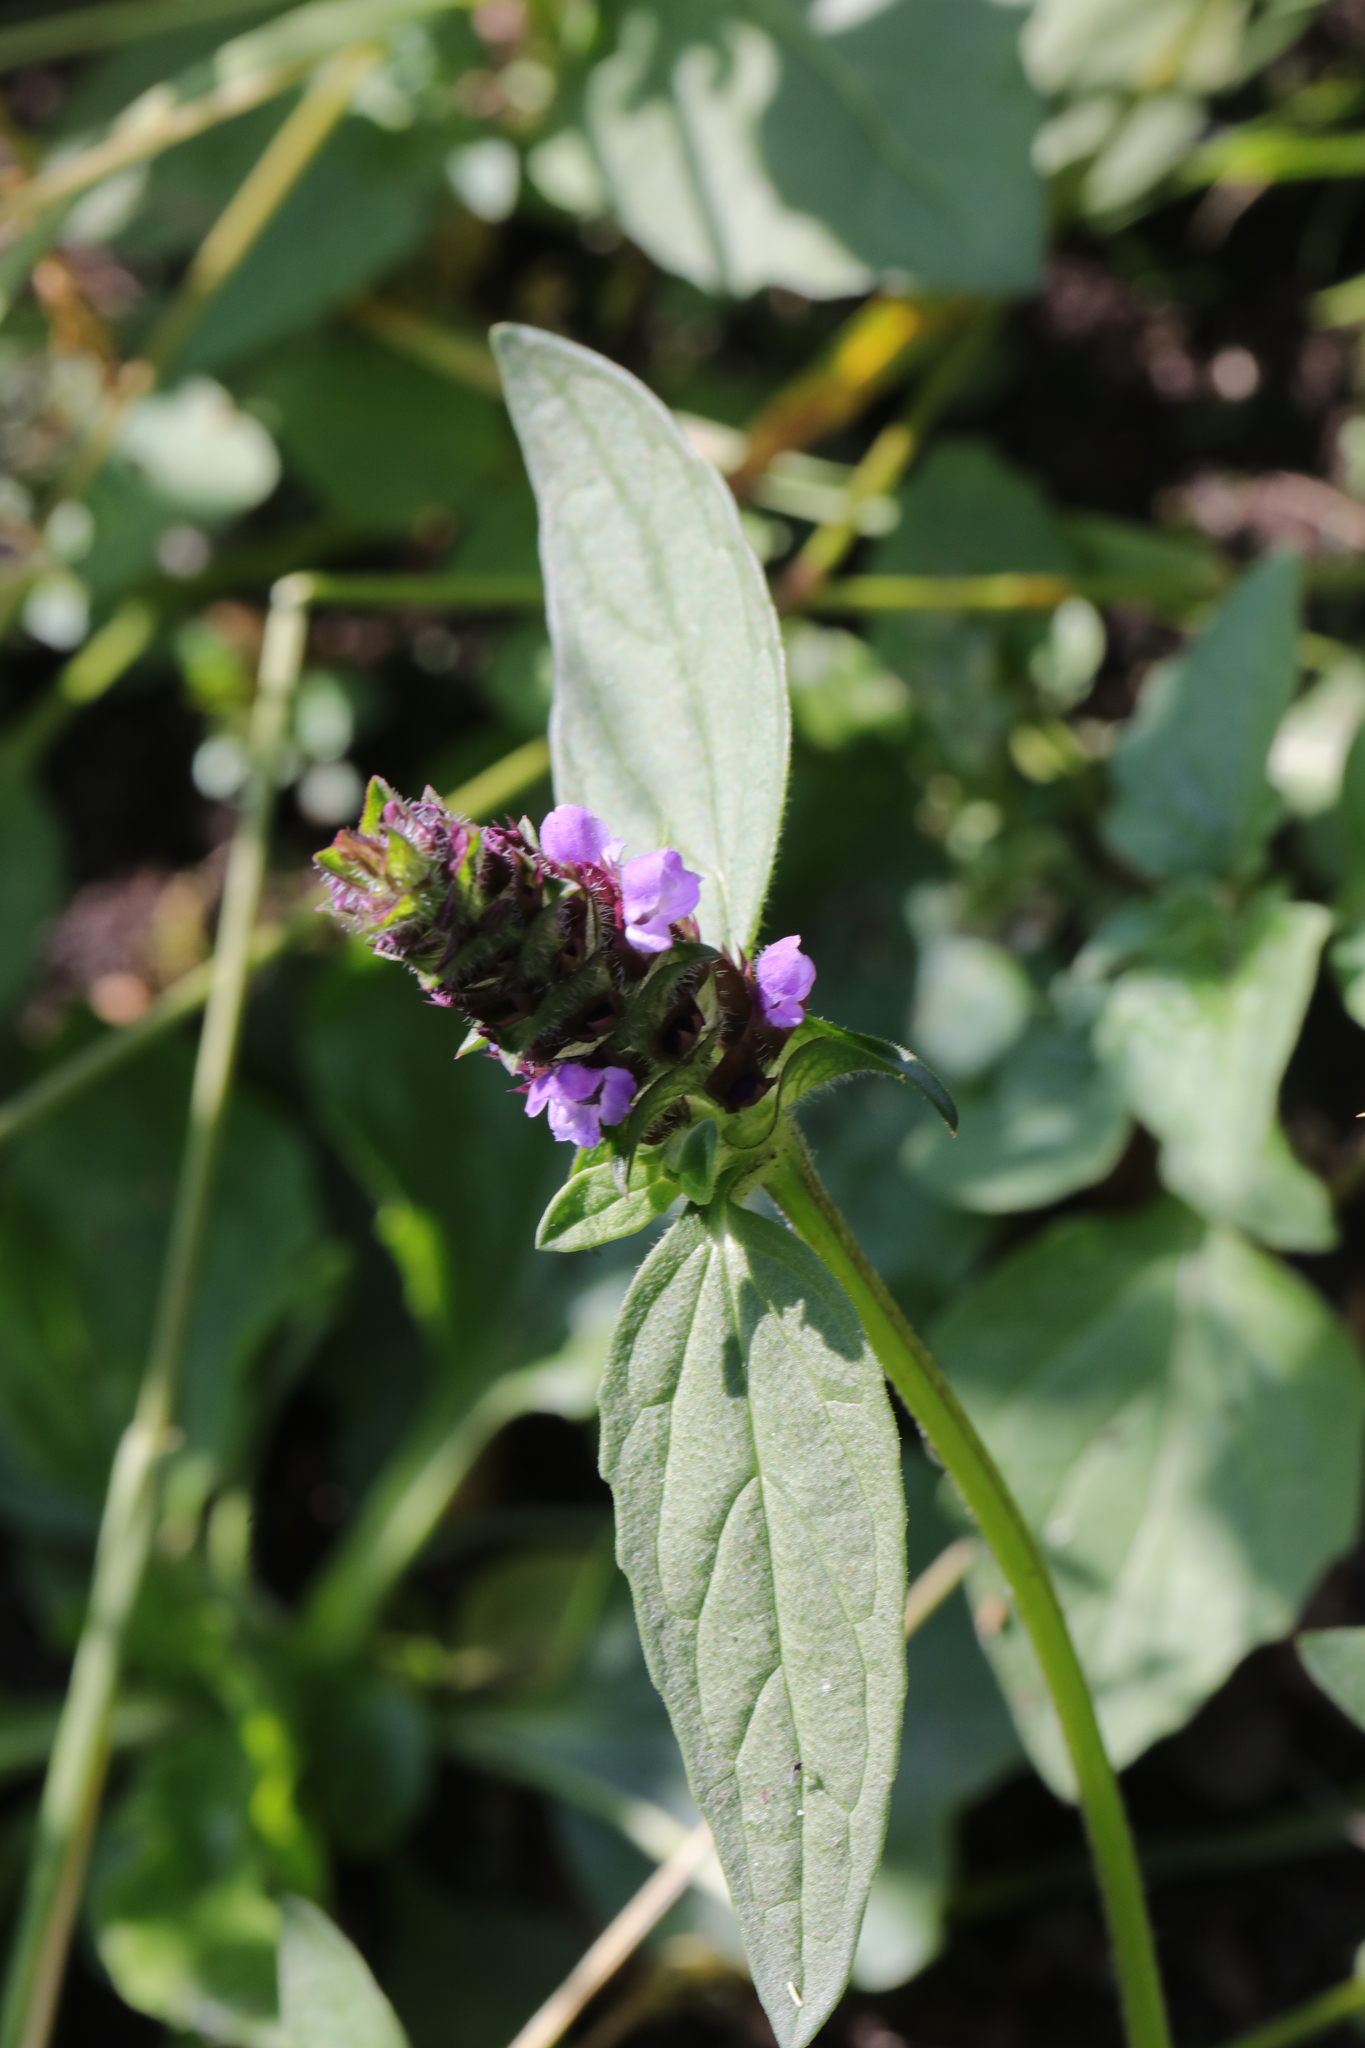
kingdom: Plantae
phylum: Tracheophyta
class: Magnoliopsida
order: Lamiales
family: Lamiaceae
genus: Prunella
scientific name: Prunella vulgaris
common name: Heal-all
